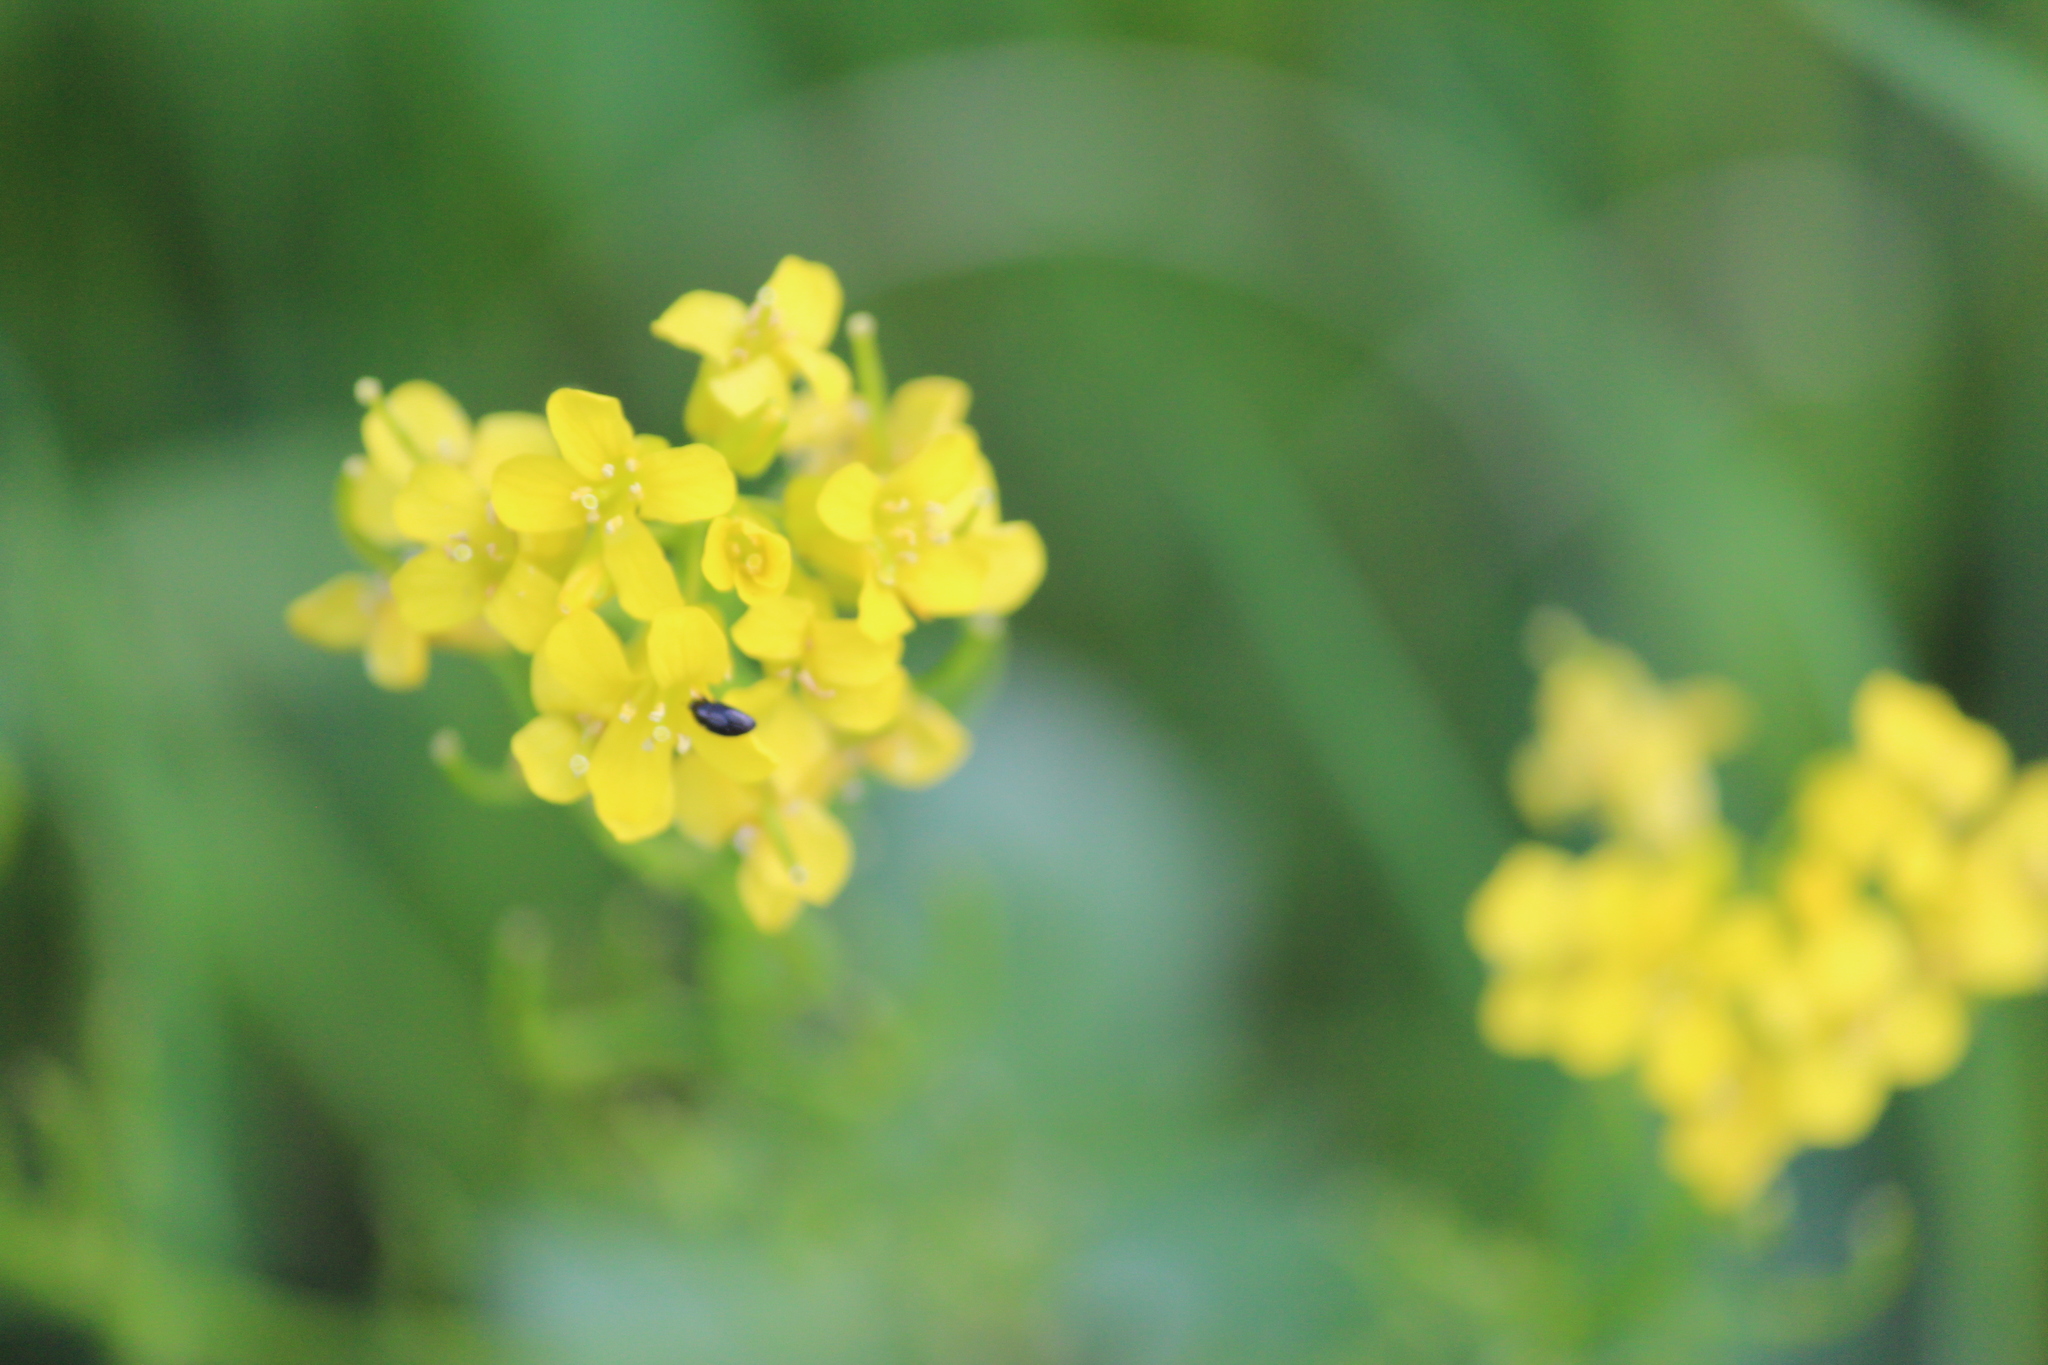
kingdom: Plantae
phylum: Tracheophyta
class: Magnoliopsida
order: Brassicales
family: Brassicaceae
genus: Barbarea
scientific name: Barbarea vulgaris
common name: Cressy-greens
